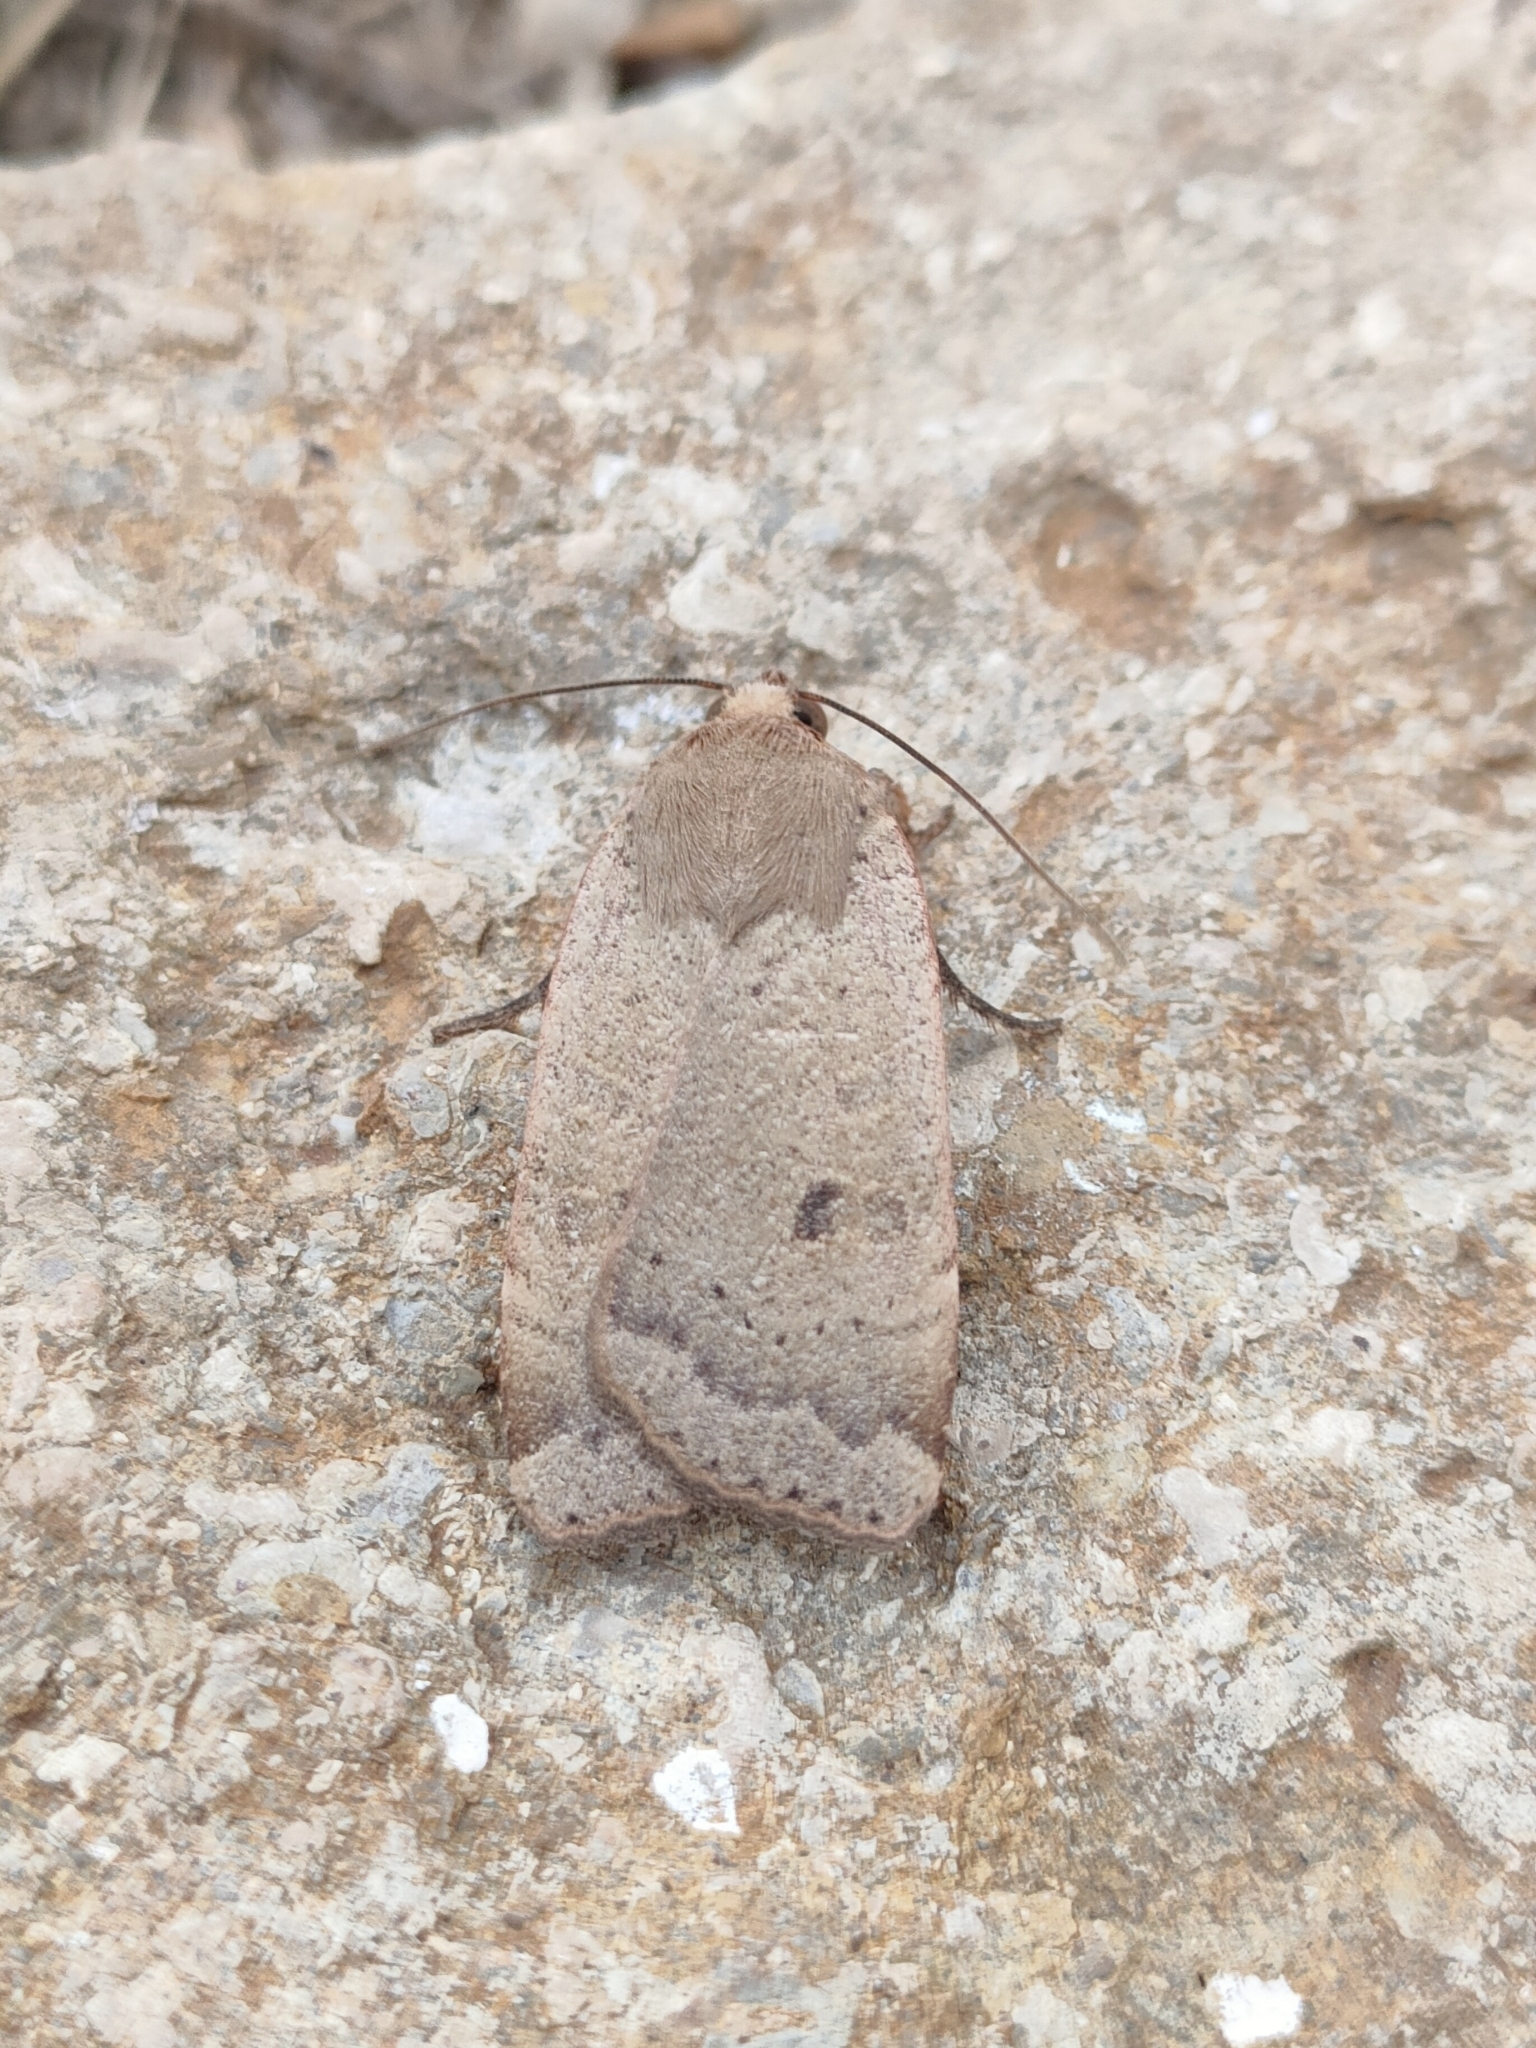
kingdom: Animalia
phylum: Arthropoda
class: Insecta
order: Lepidoptera
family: Noctuidae
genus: Noctua
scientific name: Noctua comes
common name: Lesser yellow underwing
